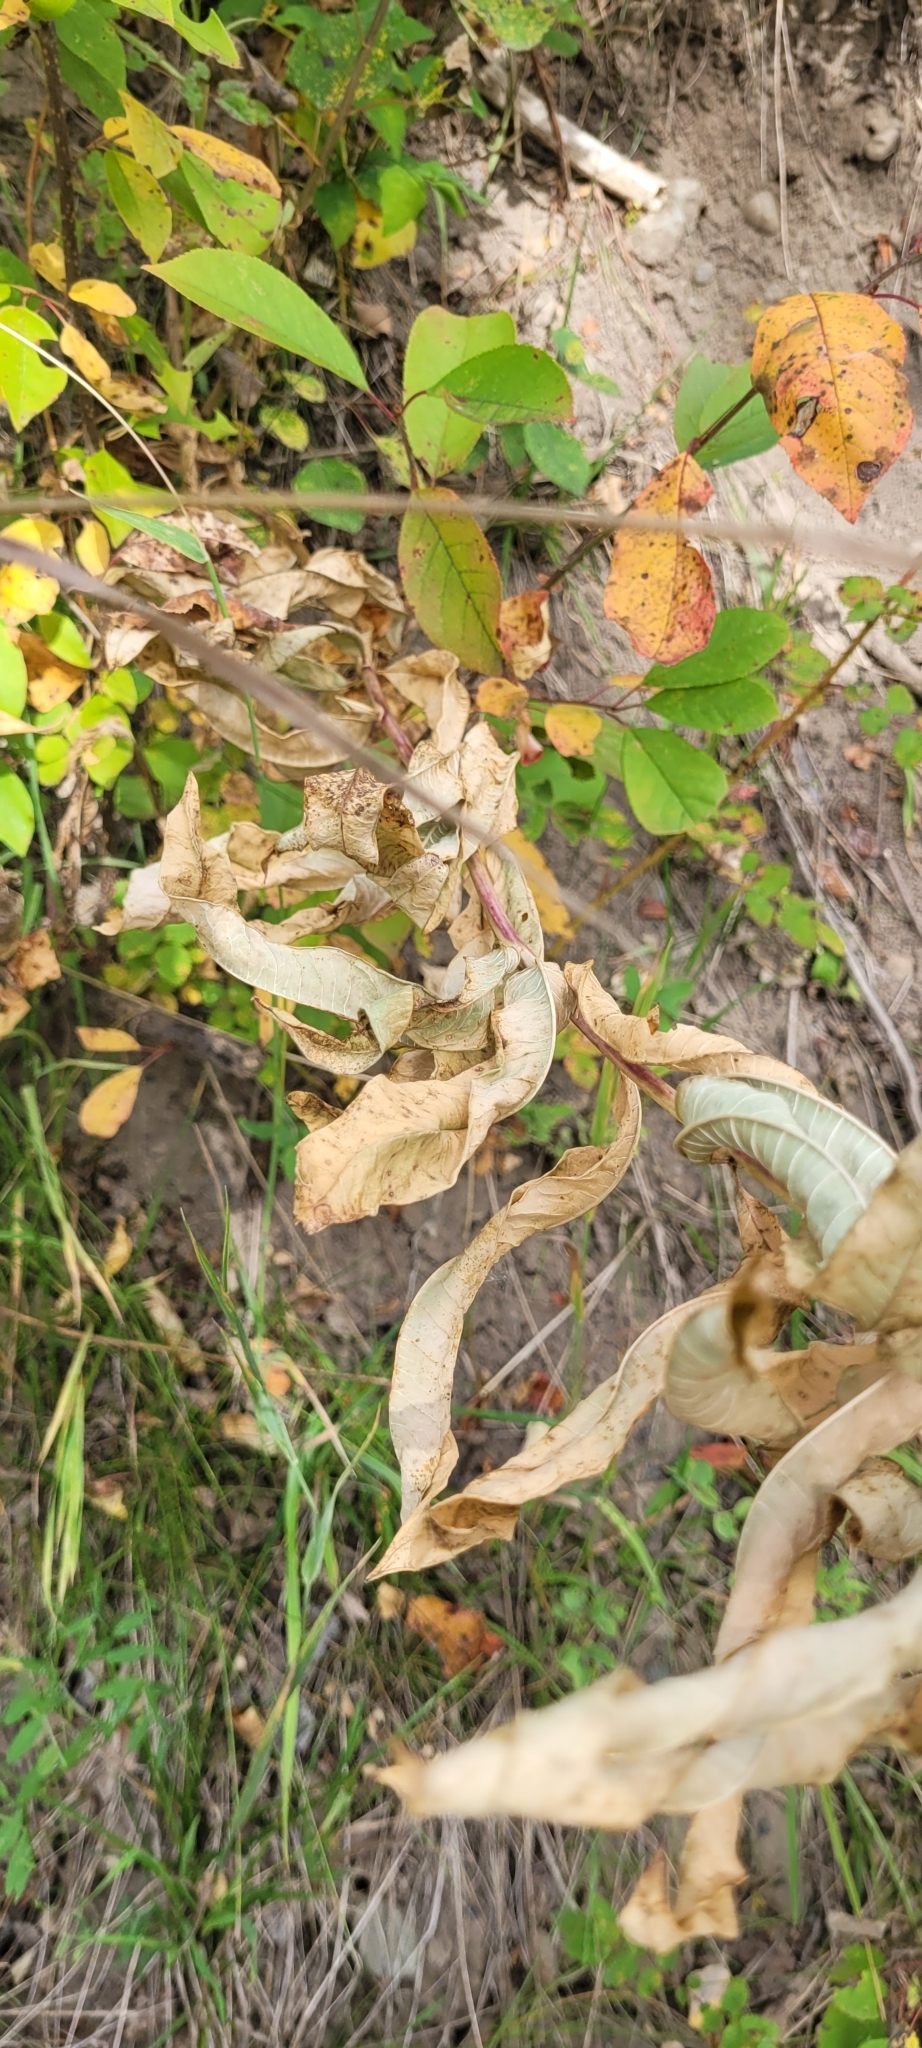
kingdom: Plantae
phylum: Tracheophyta
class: Magnoliopsida
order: Myrtales
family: Onagraceae
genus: Chamaenerion
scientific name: Chamaenerion angustifolium
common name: Fireweed
